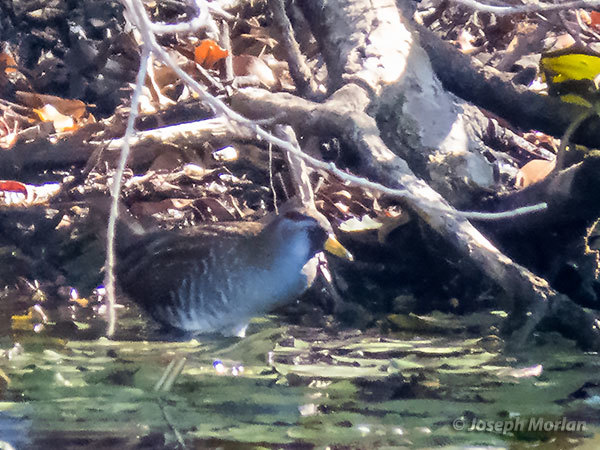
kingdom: Animalia
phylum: Chordata
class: Aves
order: Gruiformes
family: Rallidae
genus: Porzana
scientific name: Porzana carolina
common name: Sora
